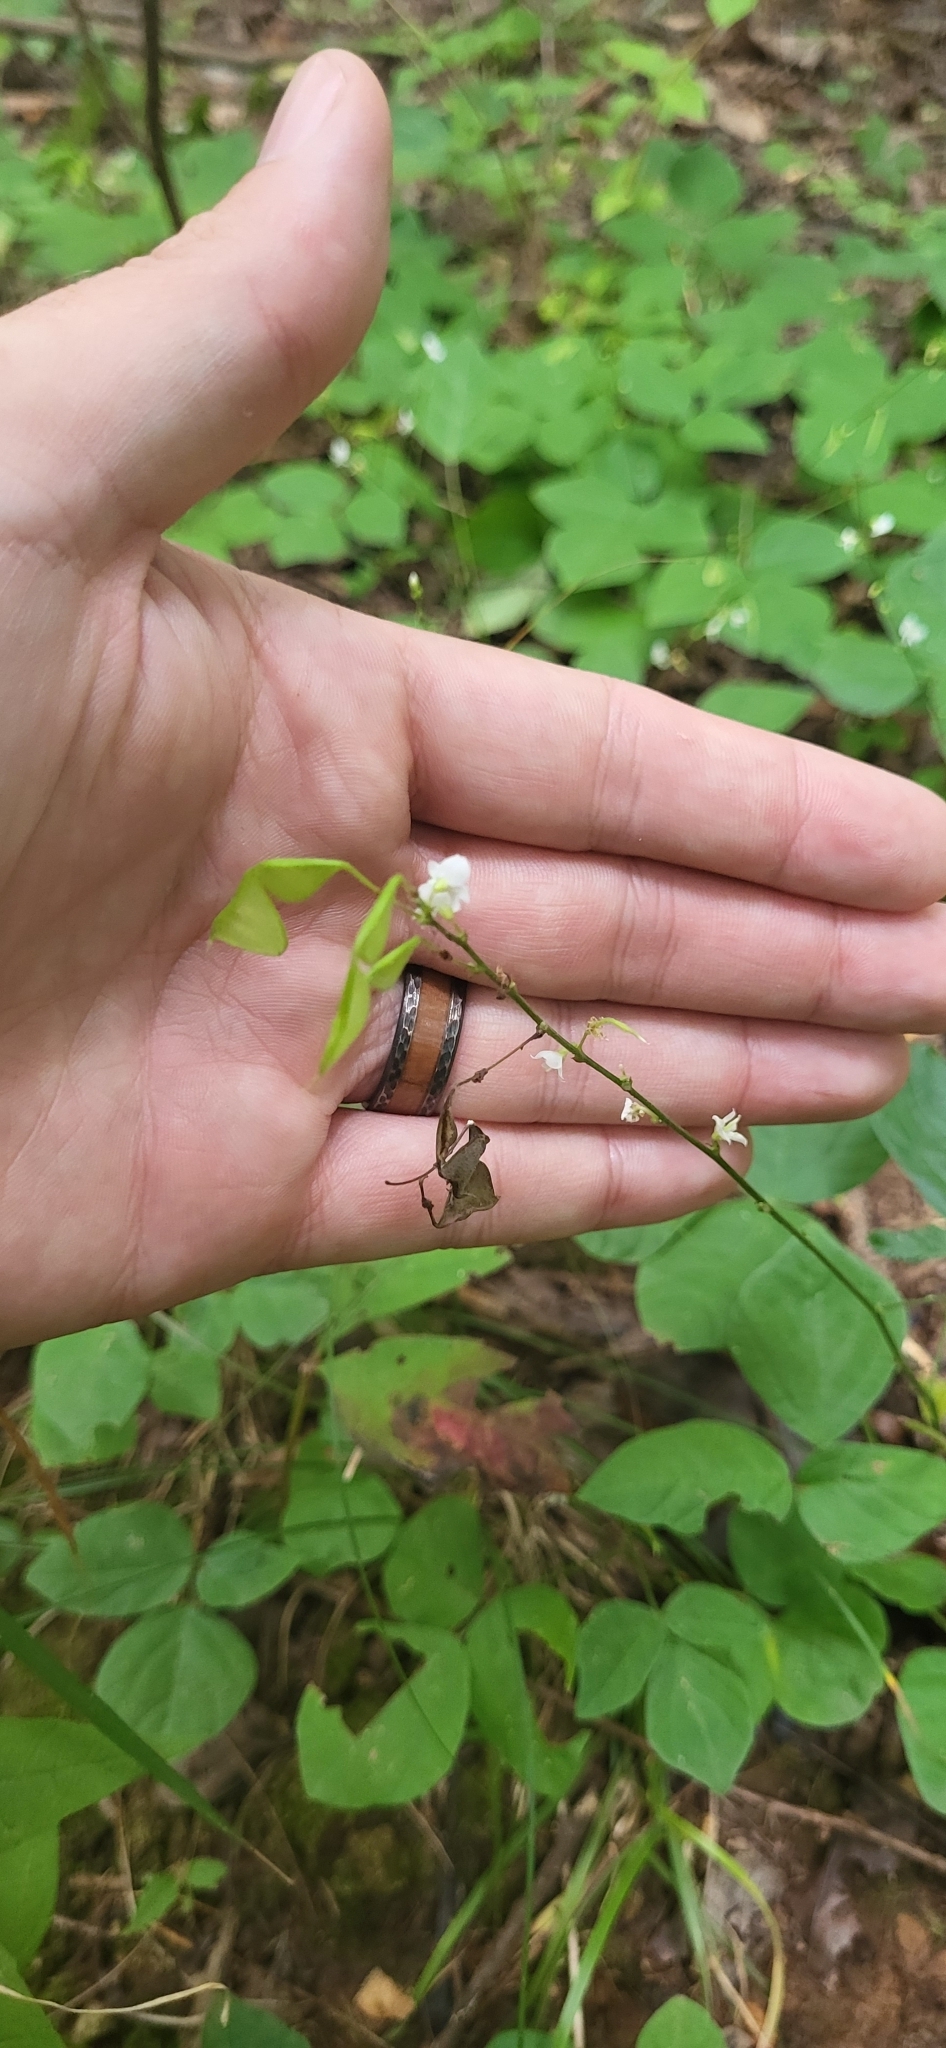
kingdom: Plantae
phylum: Tracheophyta
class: Magnoliopsida
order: Fabales
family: Fabaceae
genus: Hylodesmum
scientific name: Hylodesmum pauciflorum
